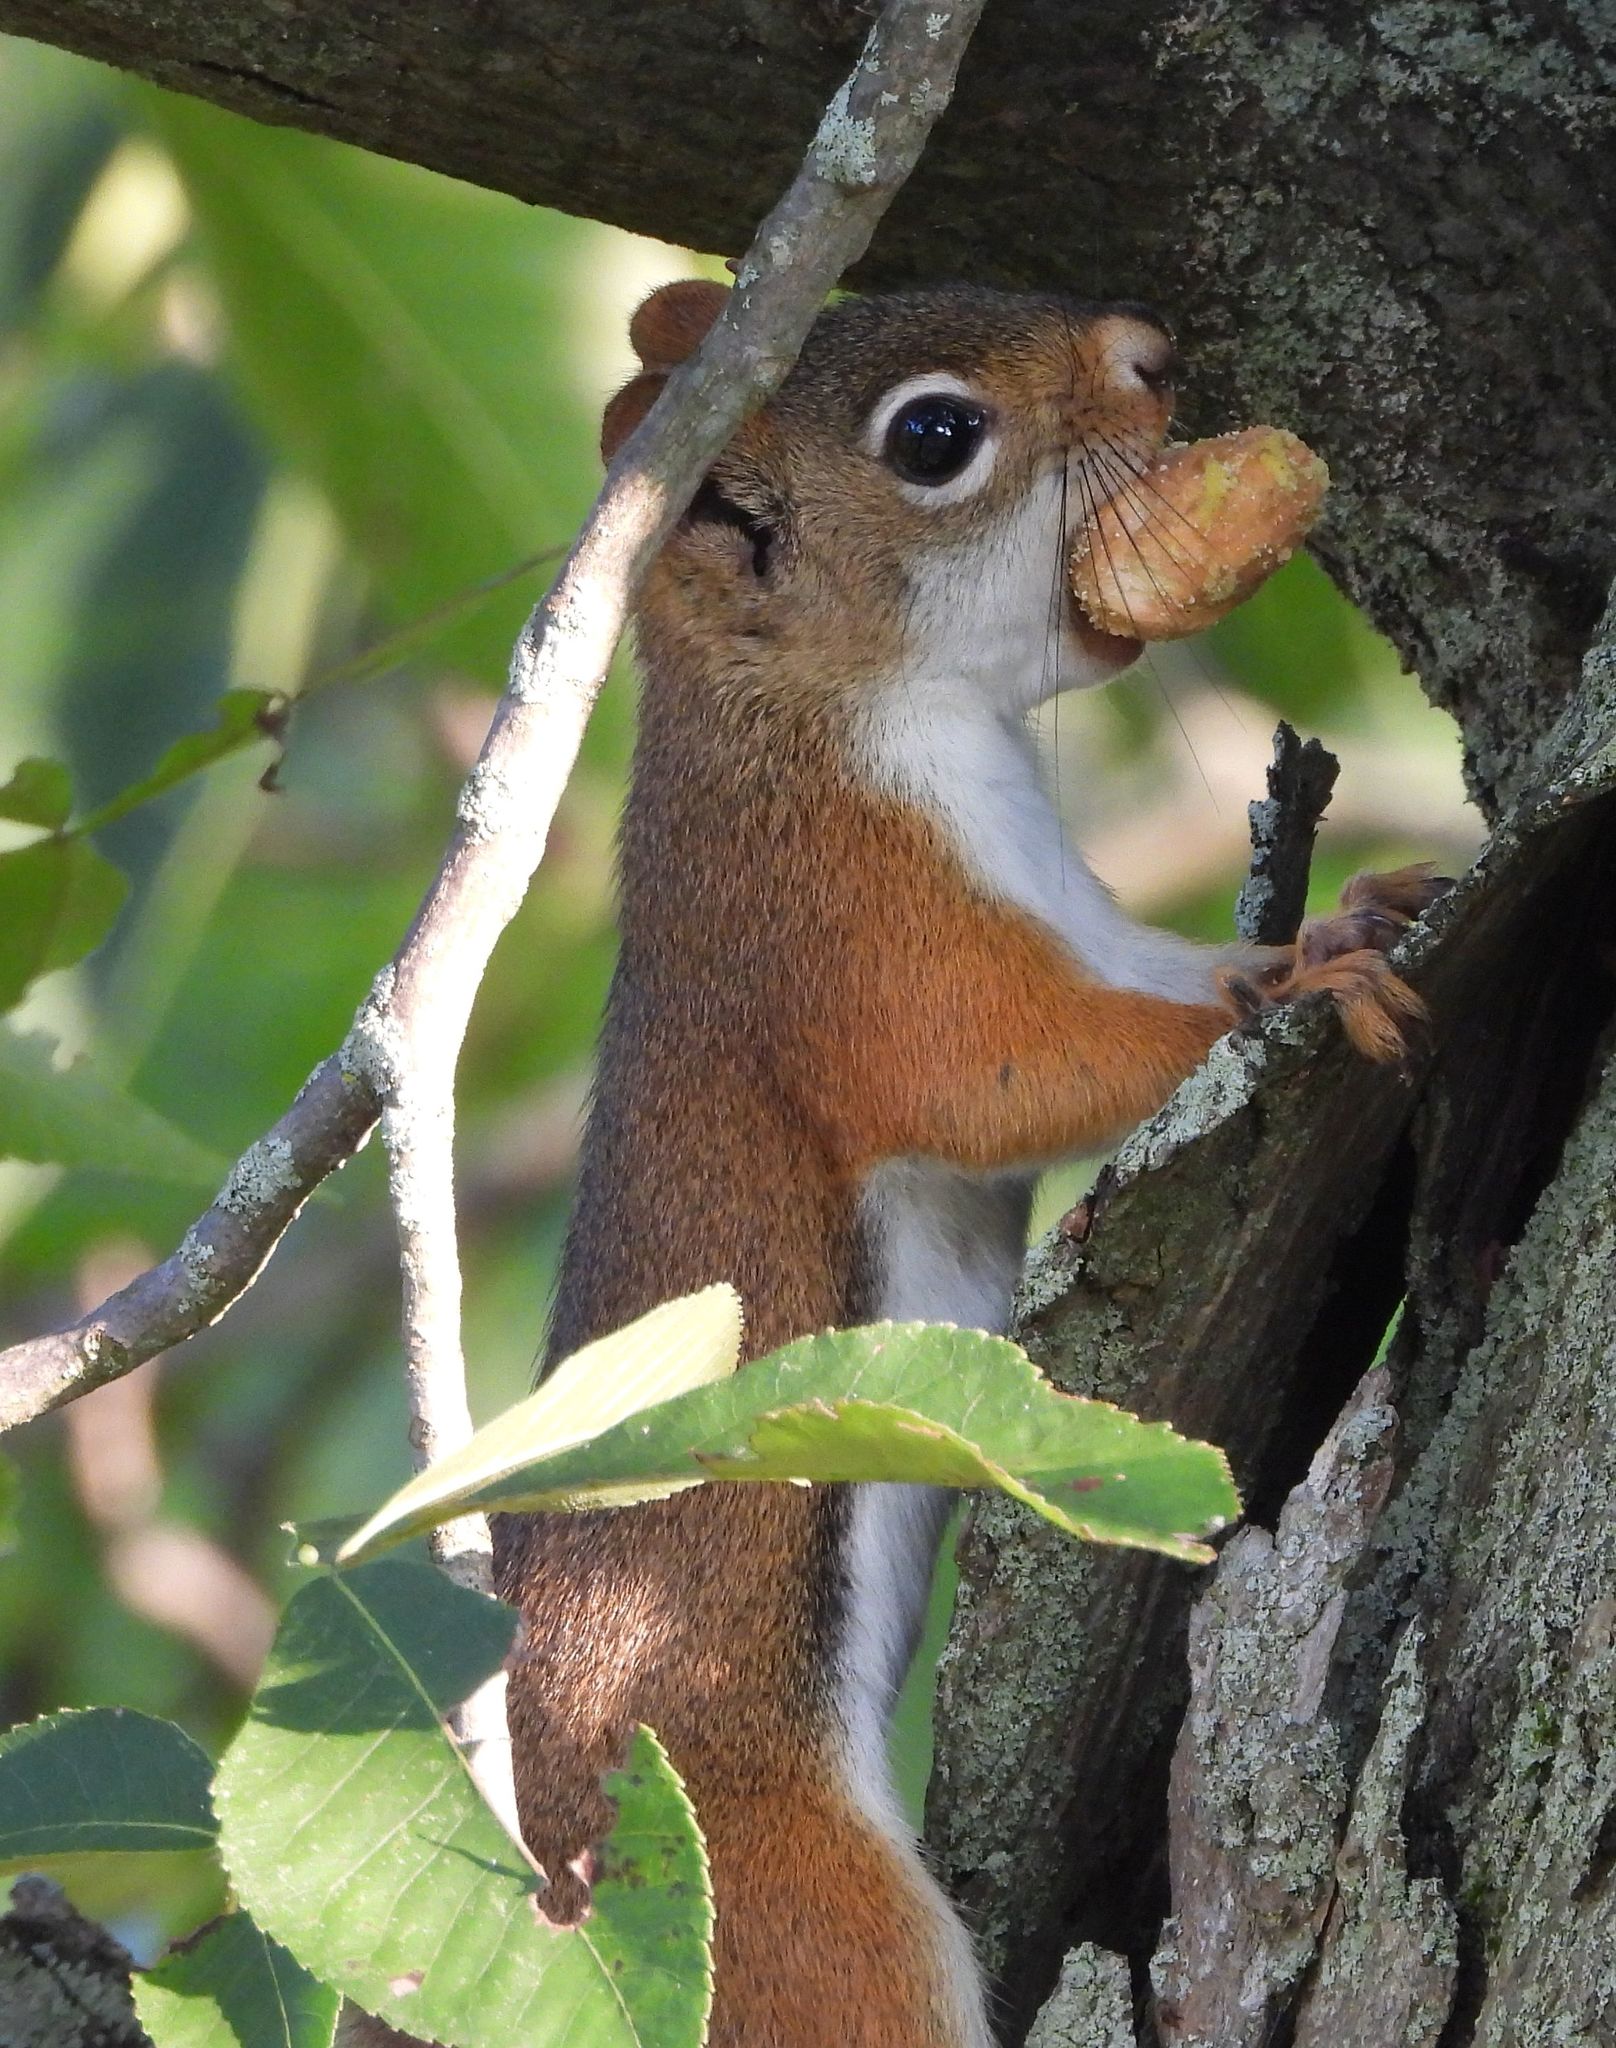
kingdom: Animalia
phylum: Chordata
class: Mammalia
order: Rodentia
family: Sciuridae
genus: Tamiasciurus
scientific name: Tamiasciurus hudsonicus
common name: Red squirrel
